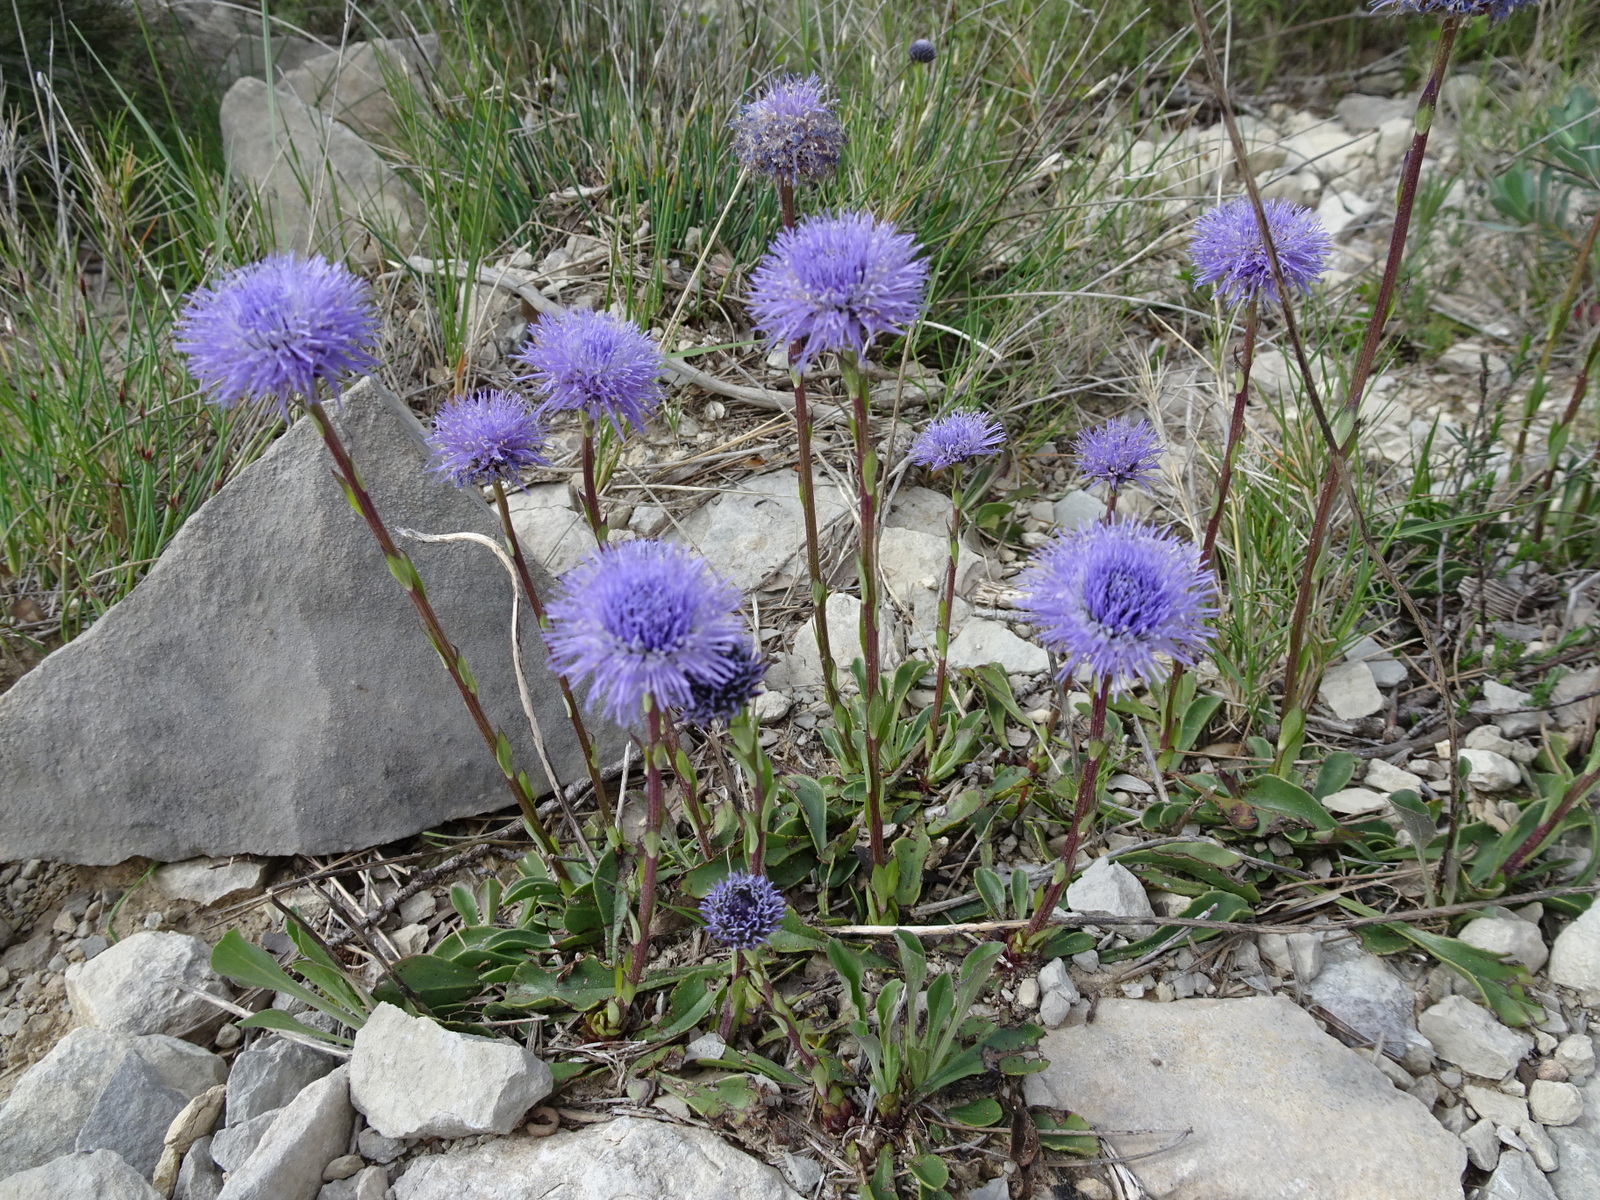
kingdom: Plantae
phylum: Tracheophyta
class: Magnoliopsida
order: Lamiales
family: Plantaginaceae
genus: Globularia
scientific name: Globularia vulgaris
